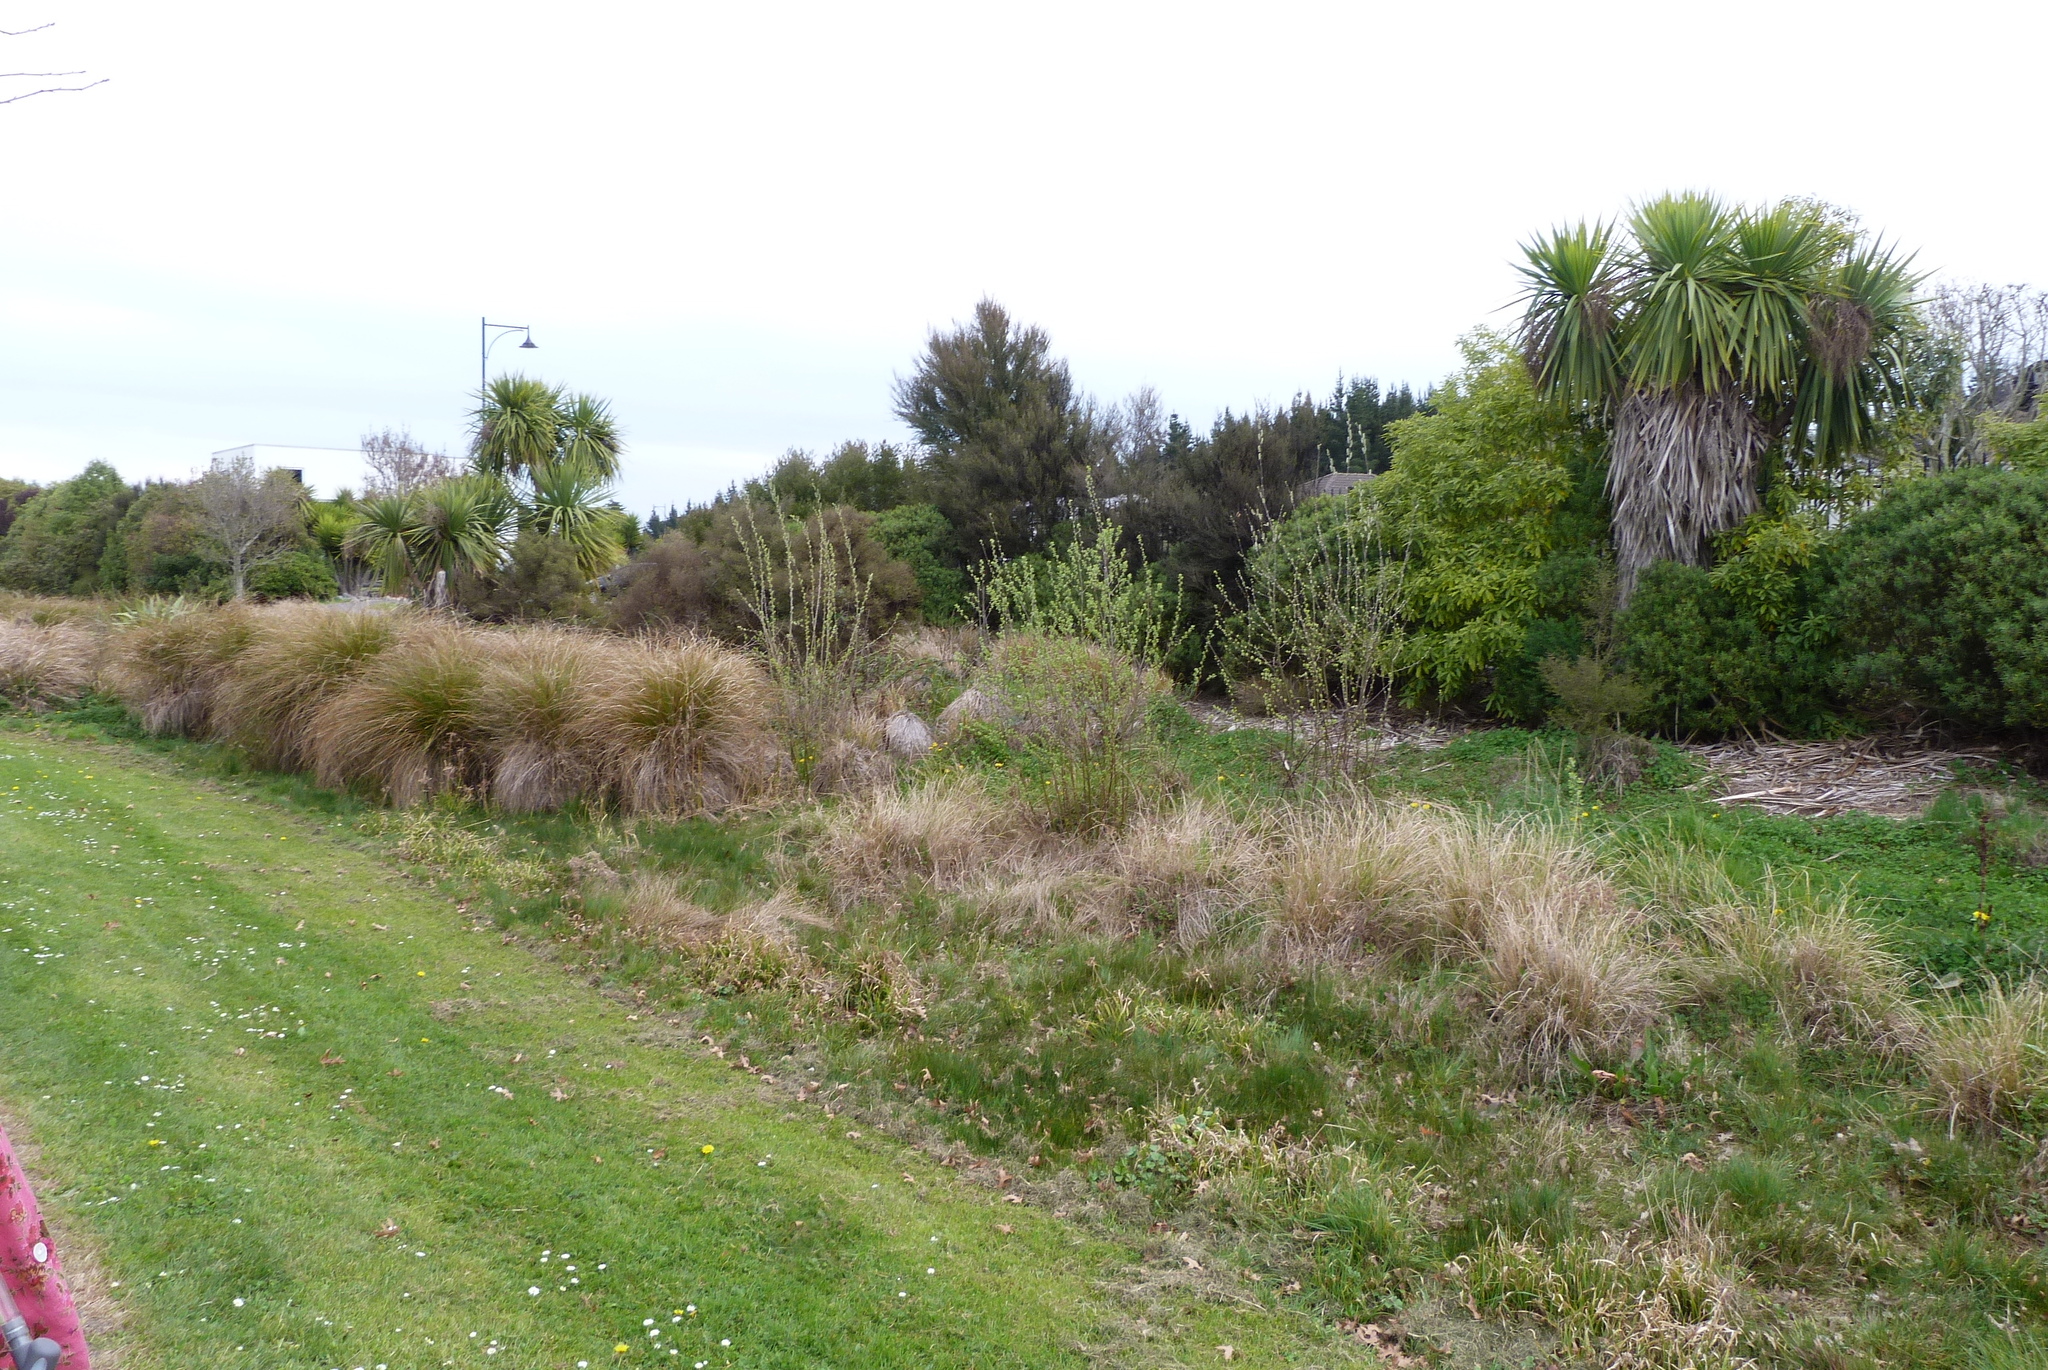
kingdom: Plantae
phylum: Tracheophyta
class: Magnoliopsida
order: Malpighiales
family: Salicaceae
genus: Salix
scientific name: Salix cinerea
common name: Common sallow
